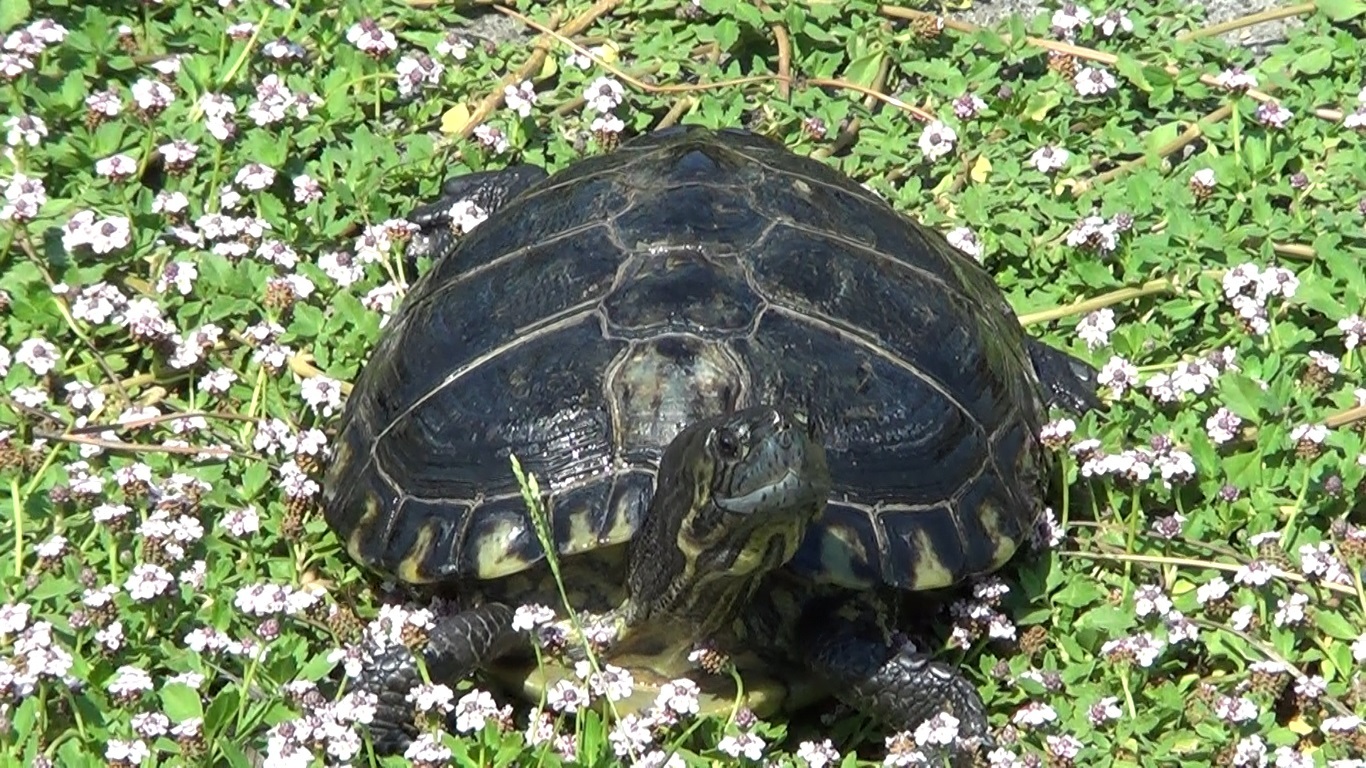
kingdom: Animalia
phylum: Chordata
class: Testudines
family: Emydidae
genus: Trachemys
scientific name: Trachemys scripta
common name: Slider
